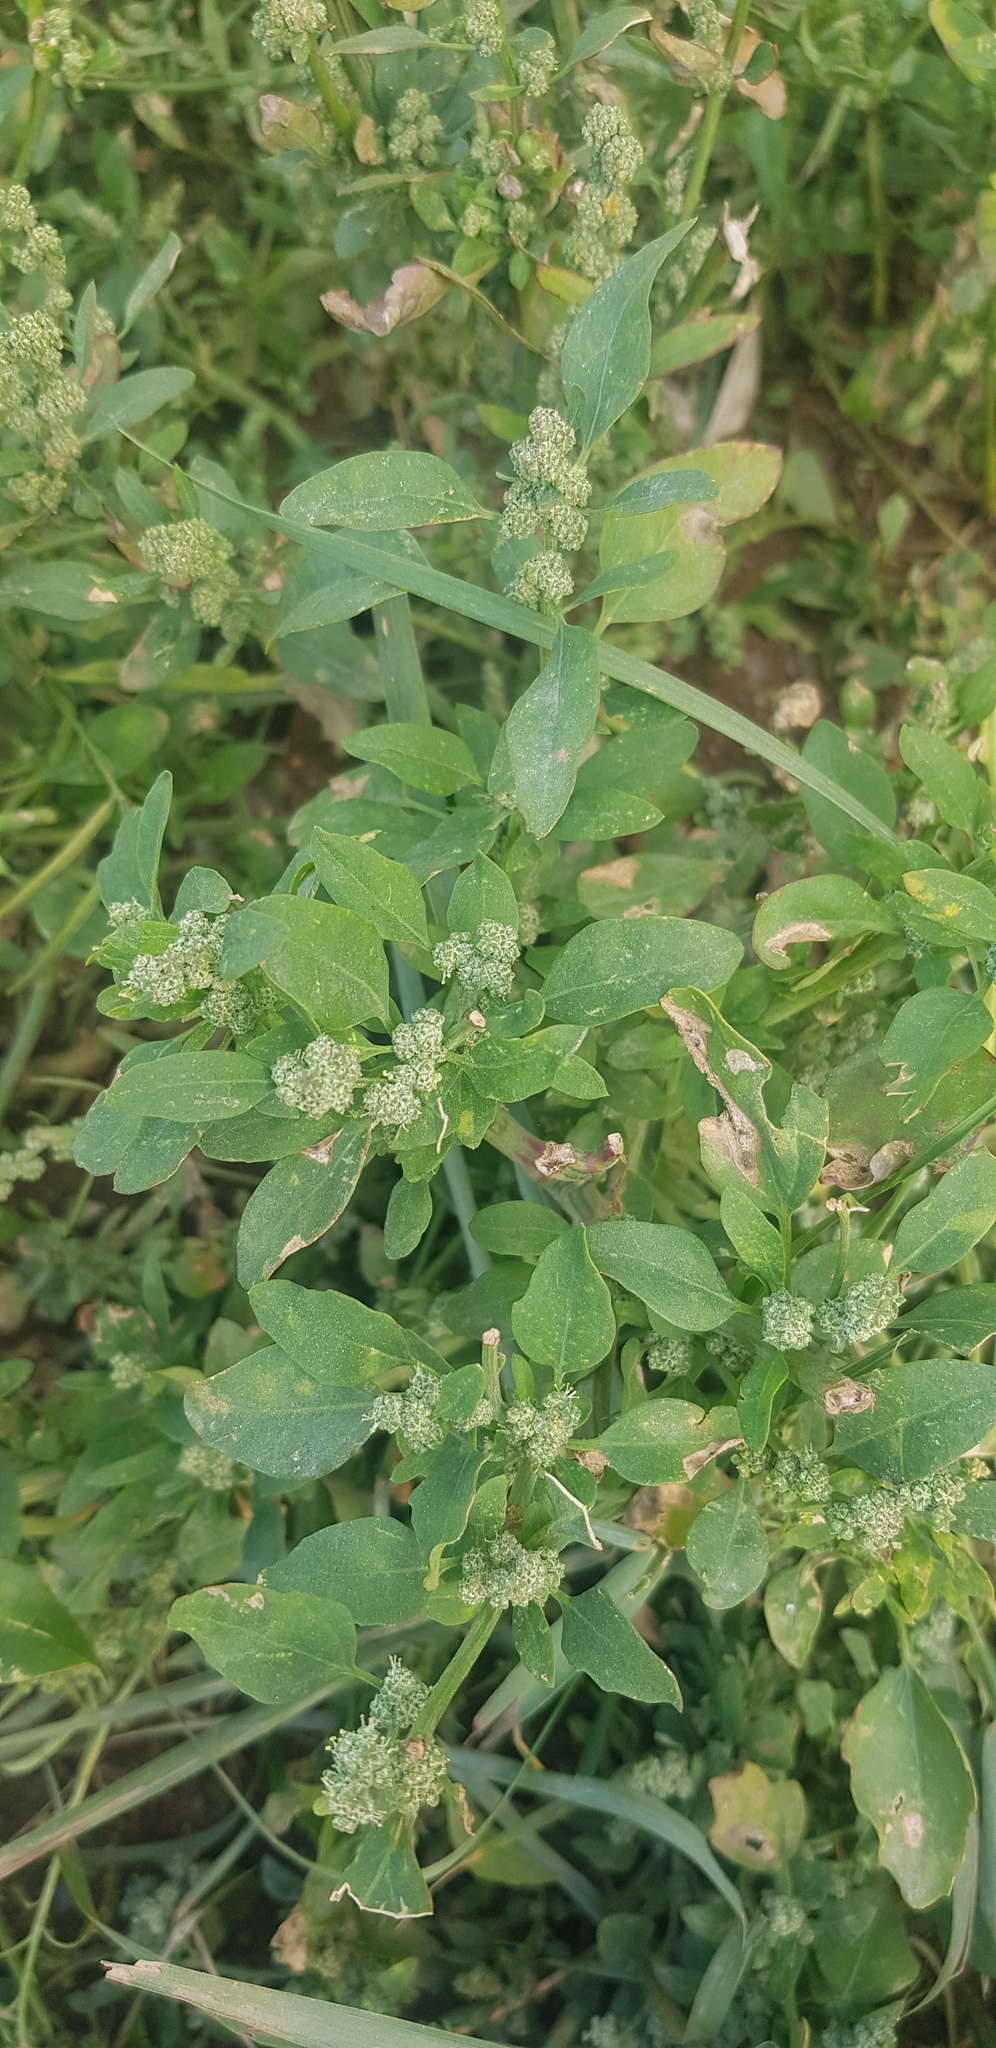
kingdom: Plantae
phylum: Tracheophyta
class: Magnoliopsida
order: Caryophyllales
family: Amaranthaceae
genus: Chenopodium
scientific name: Chenopodium album
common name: Fat-hen
